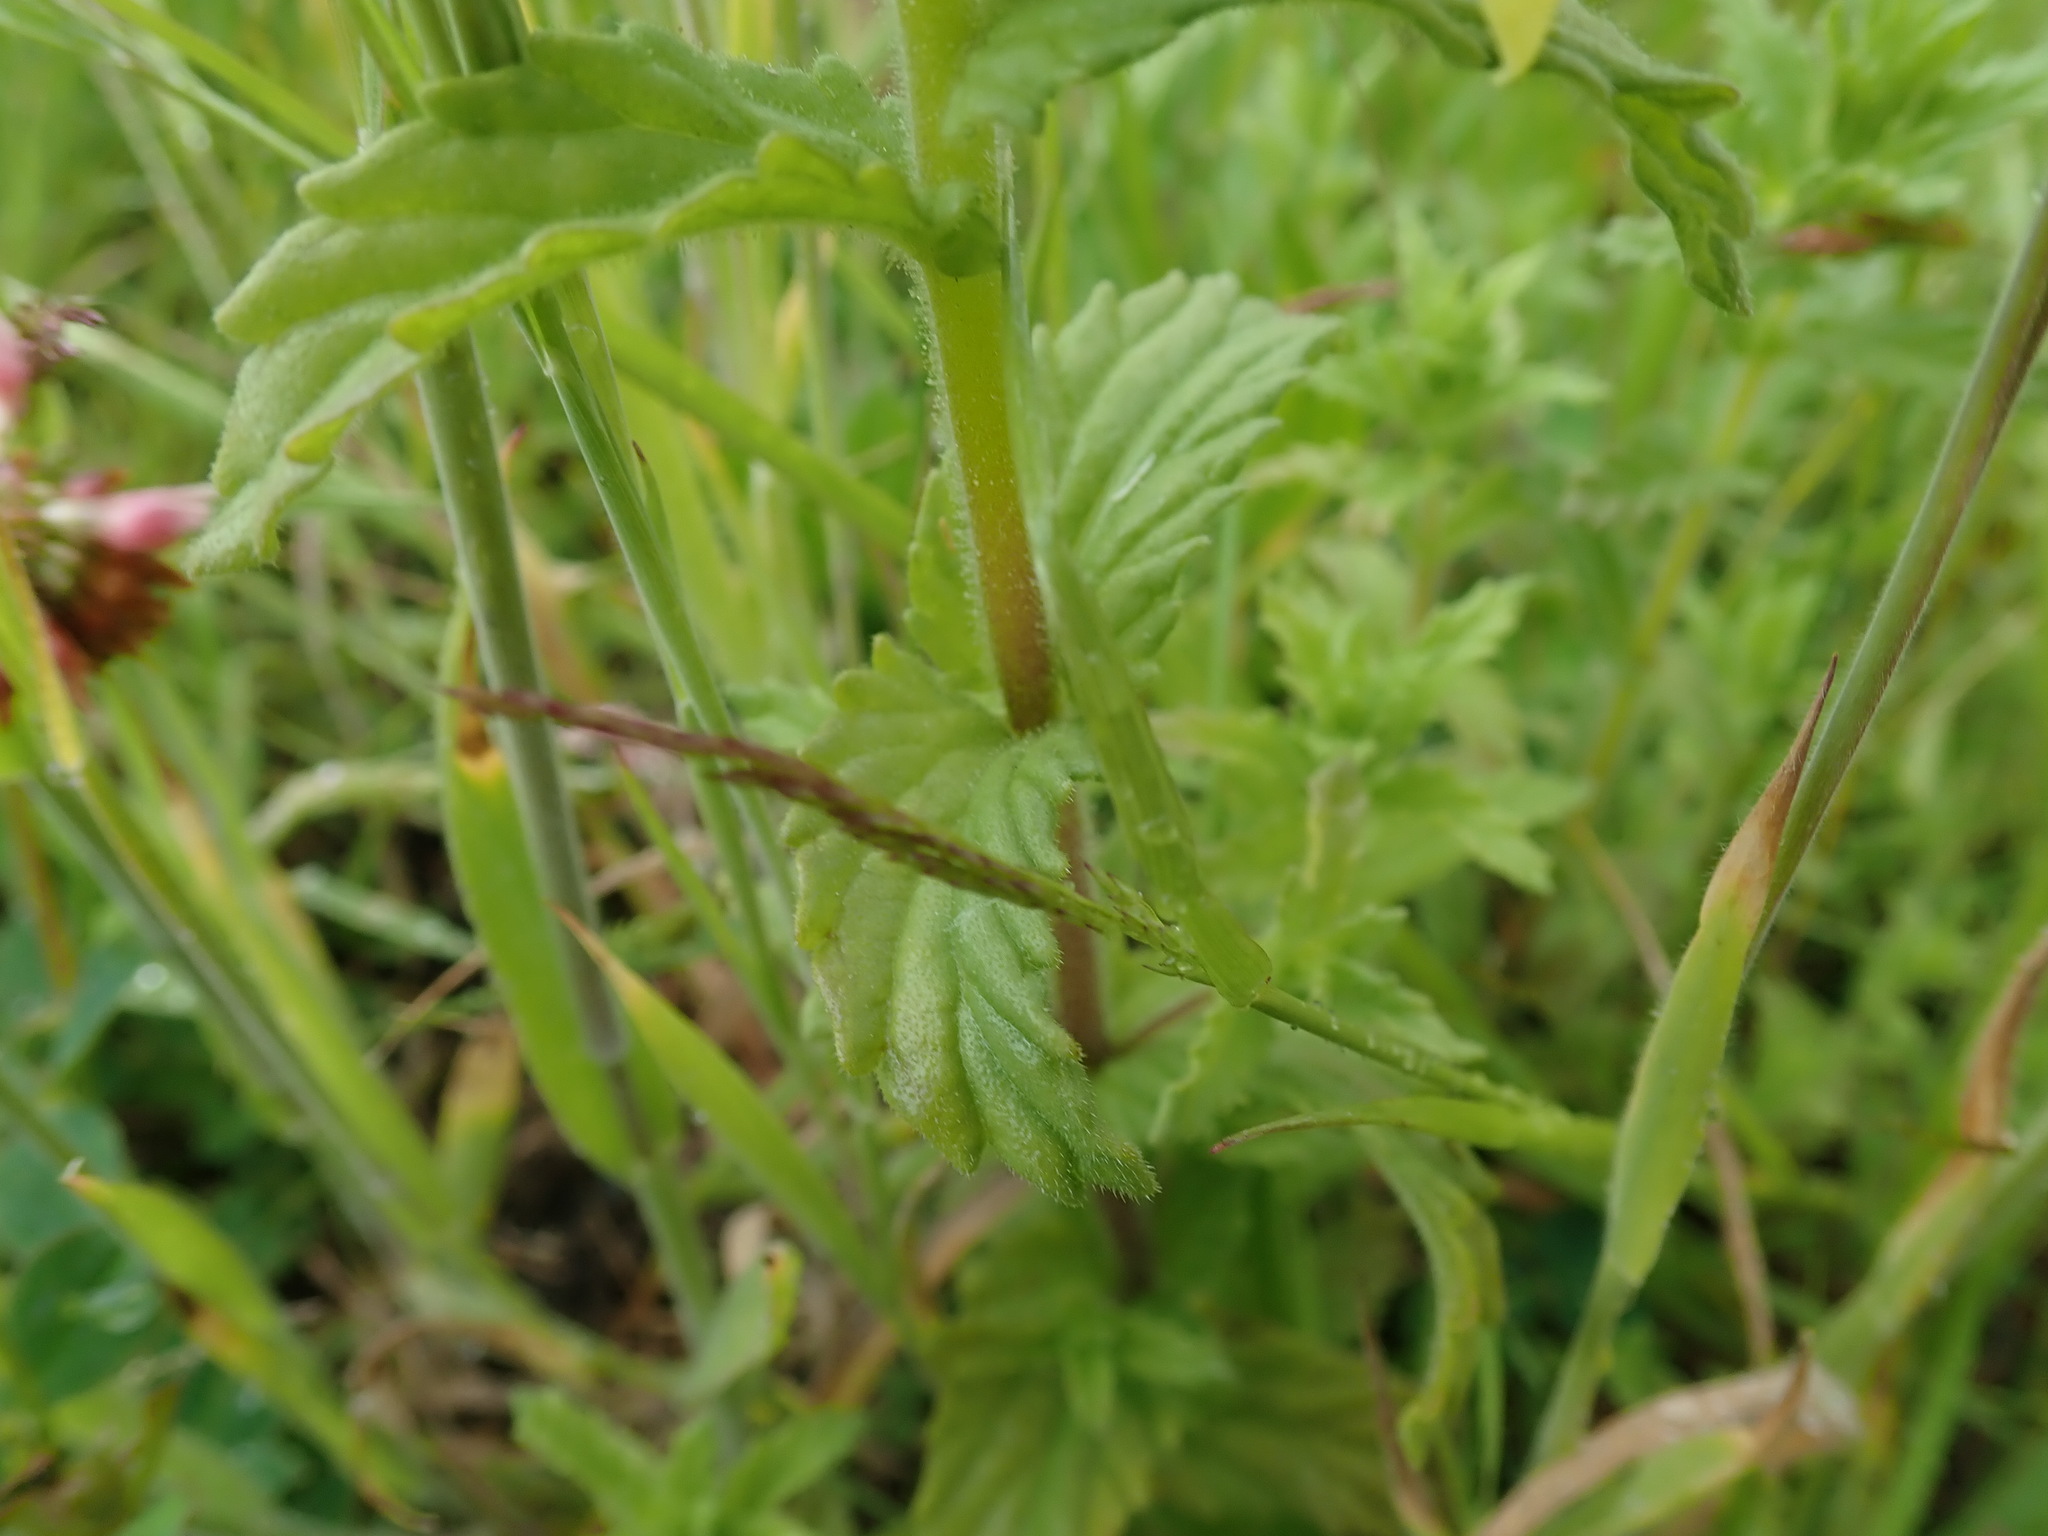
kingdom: Plantae
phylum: Tracheophyta
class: Magnoliopsida
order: Lamiales
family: Orobanchaceae
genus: Bellardia
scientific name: Bellardia viscosa
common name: Sticky parentucellia
